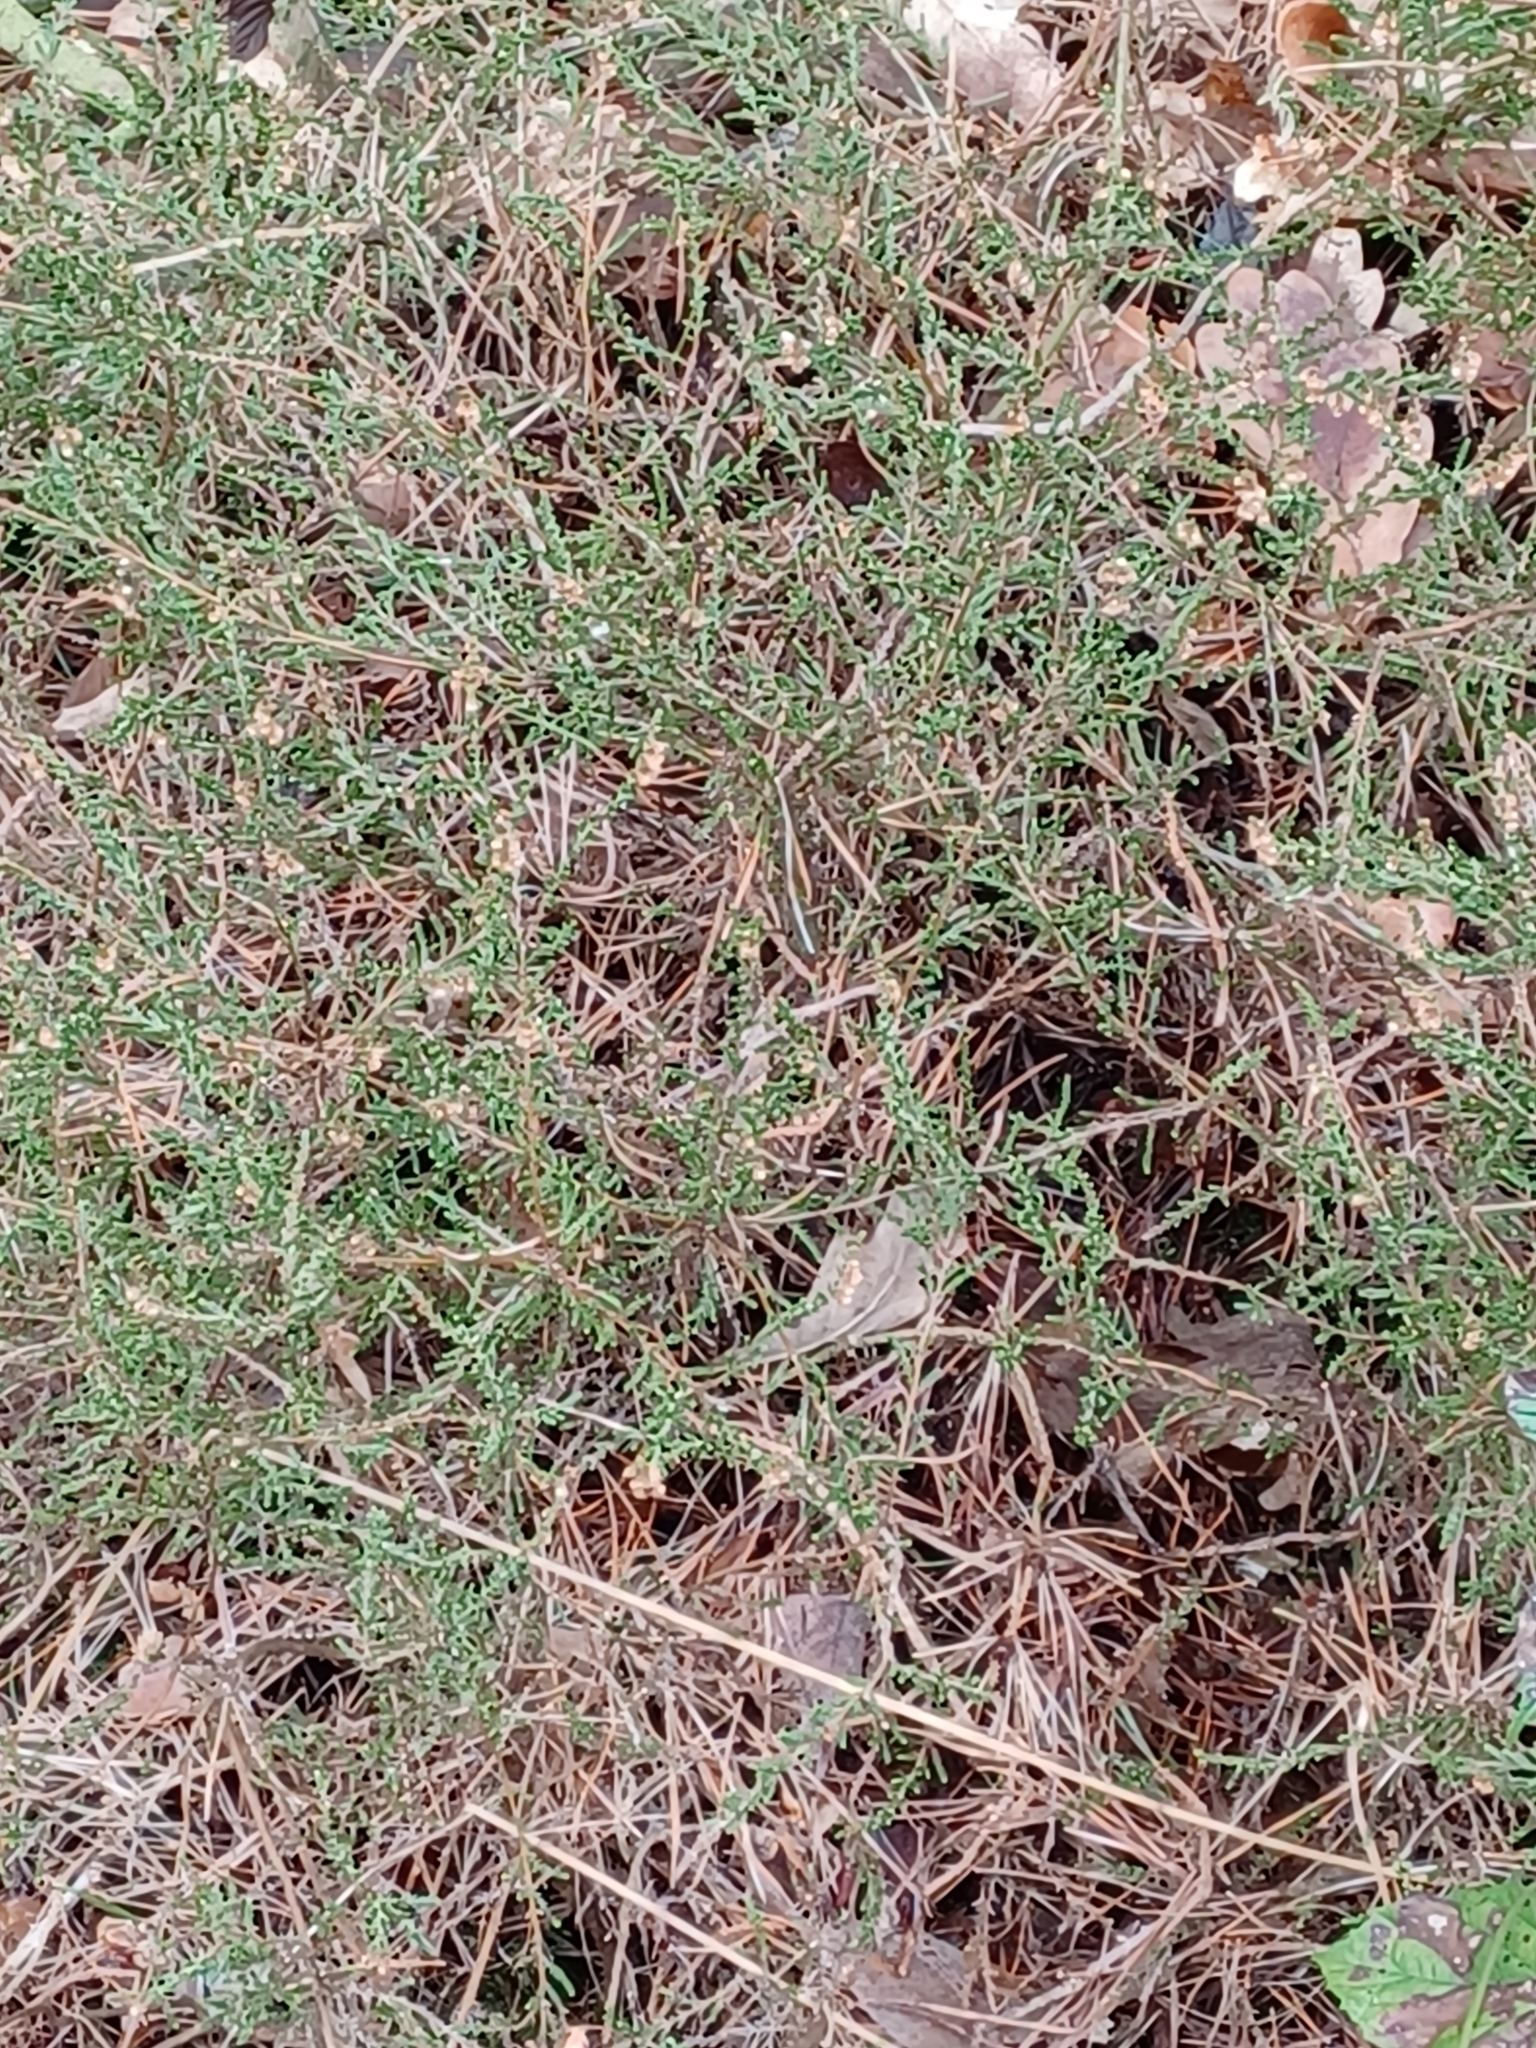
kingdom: Plantae
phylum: Tracheophyta
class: Magnoliopsida
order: Ericales
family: Ericaceae
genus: Calluna
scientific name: Calluna vulgaris
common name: Heather
